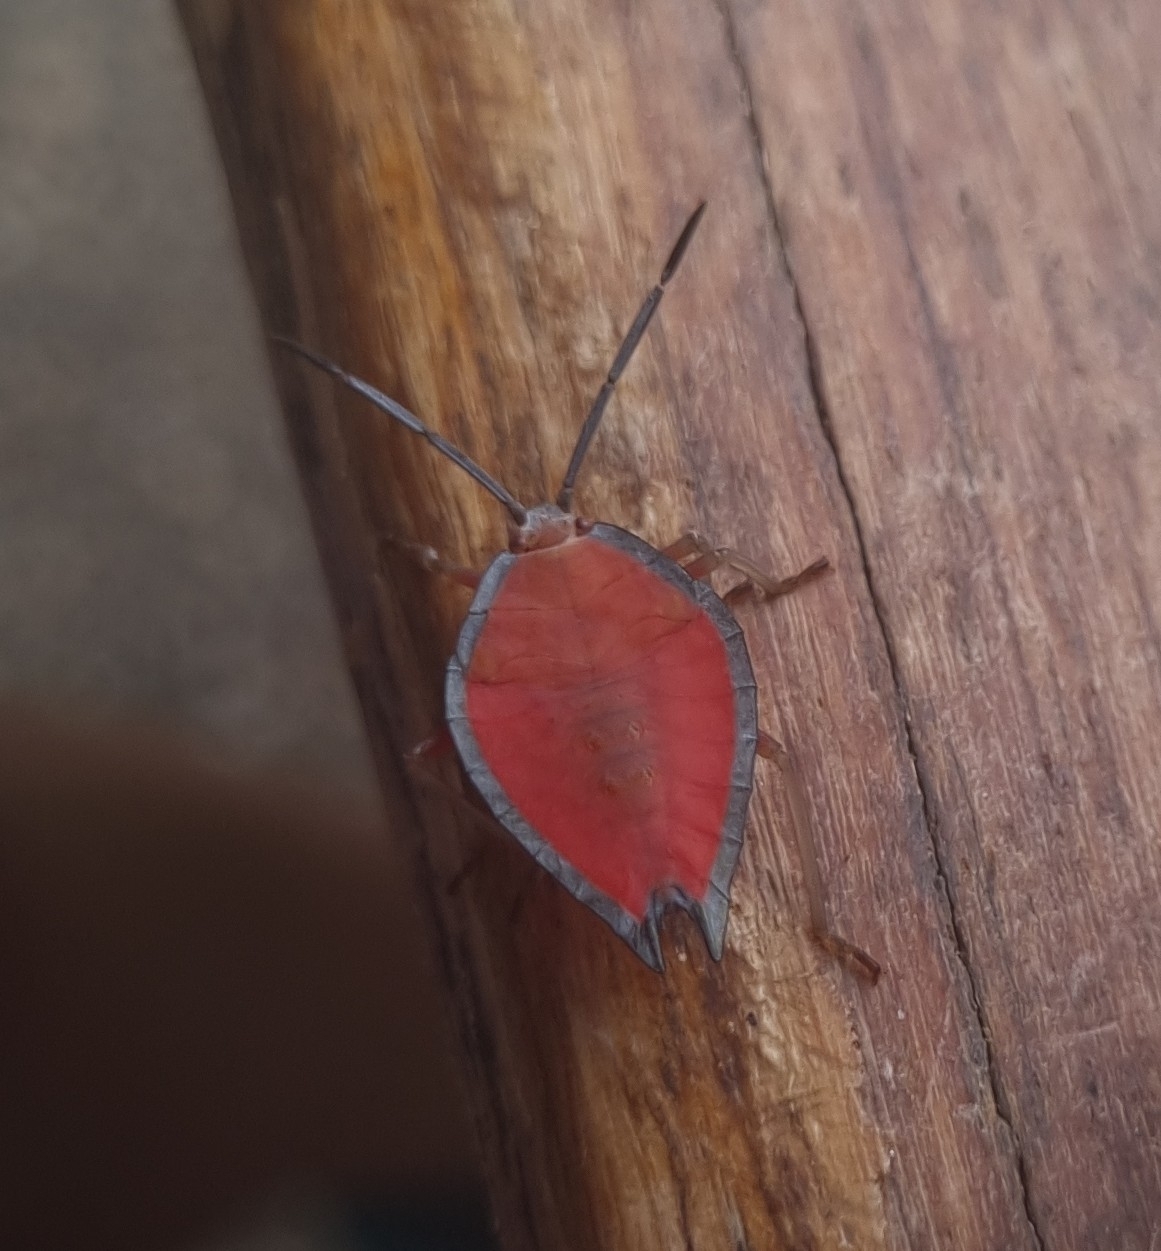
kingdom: Animalia
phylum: Arthropoda
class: Insecta
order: Hemiptera
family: Tessaratomidae
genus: Lyramorpha
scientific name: Lyramorpha rosea
